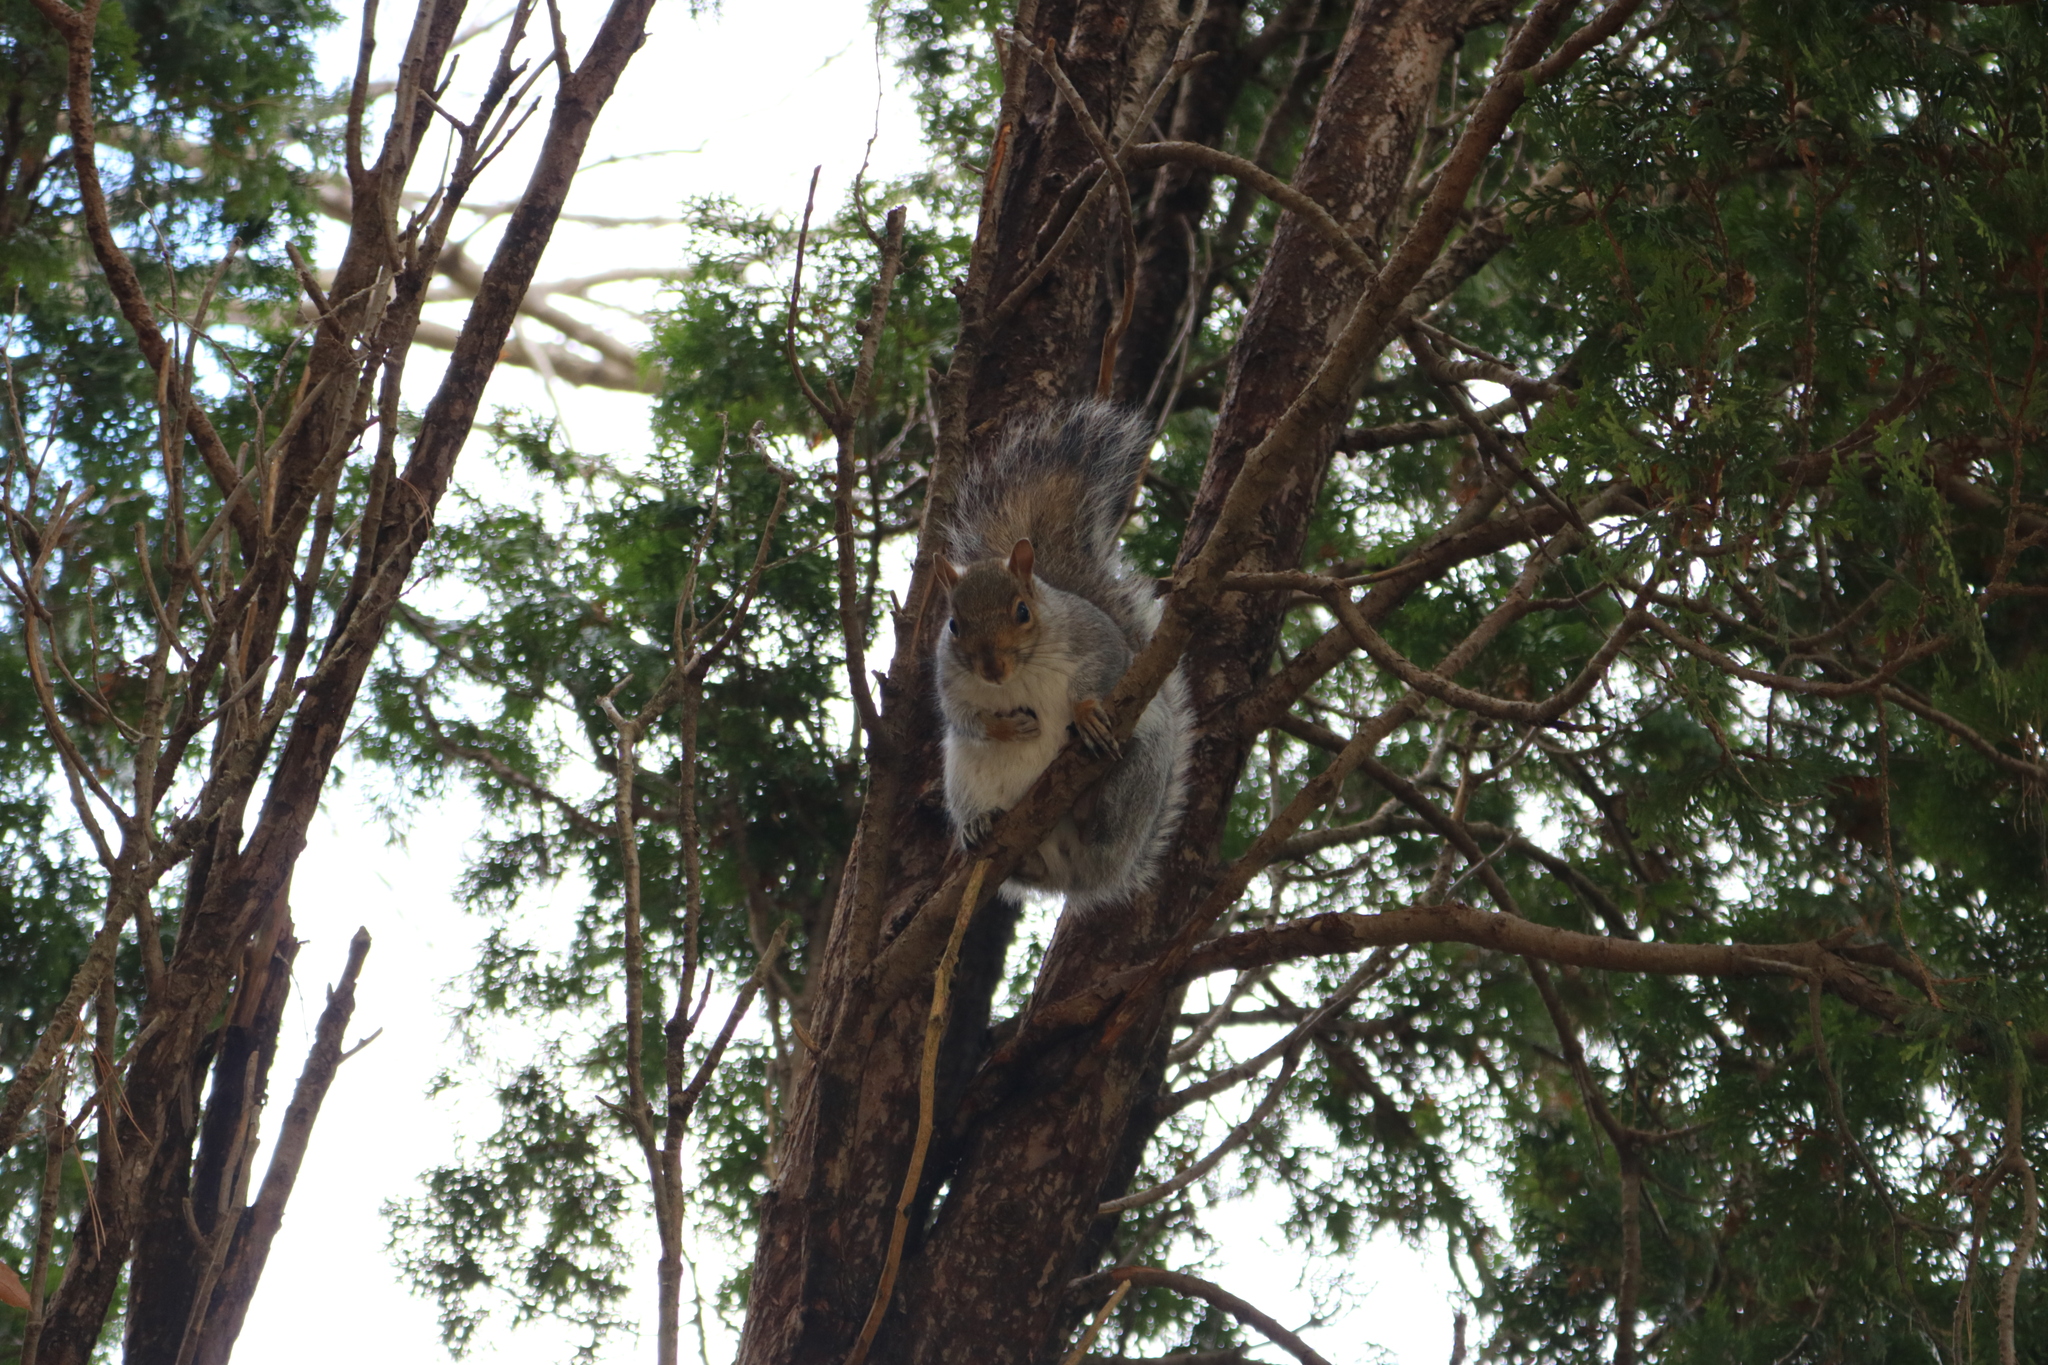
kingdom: Animalia
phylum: Chordata
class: Mammalia
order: Rodentia
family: Sciuridae
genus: Sciurus
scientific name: Sciurus carolinensis
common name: Eastern gray squirrel
